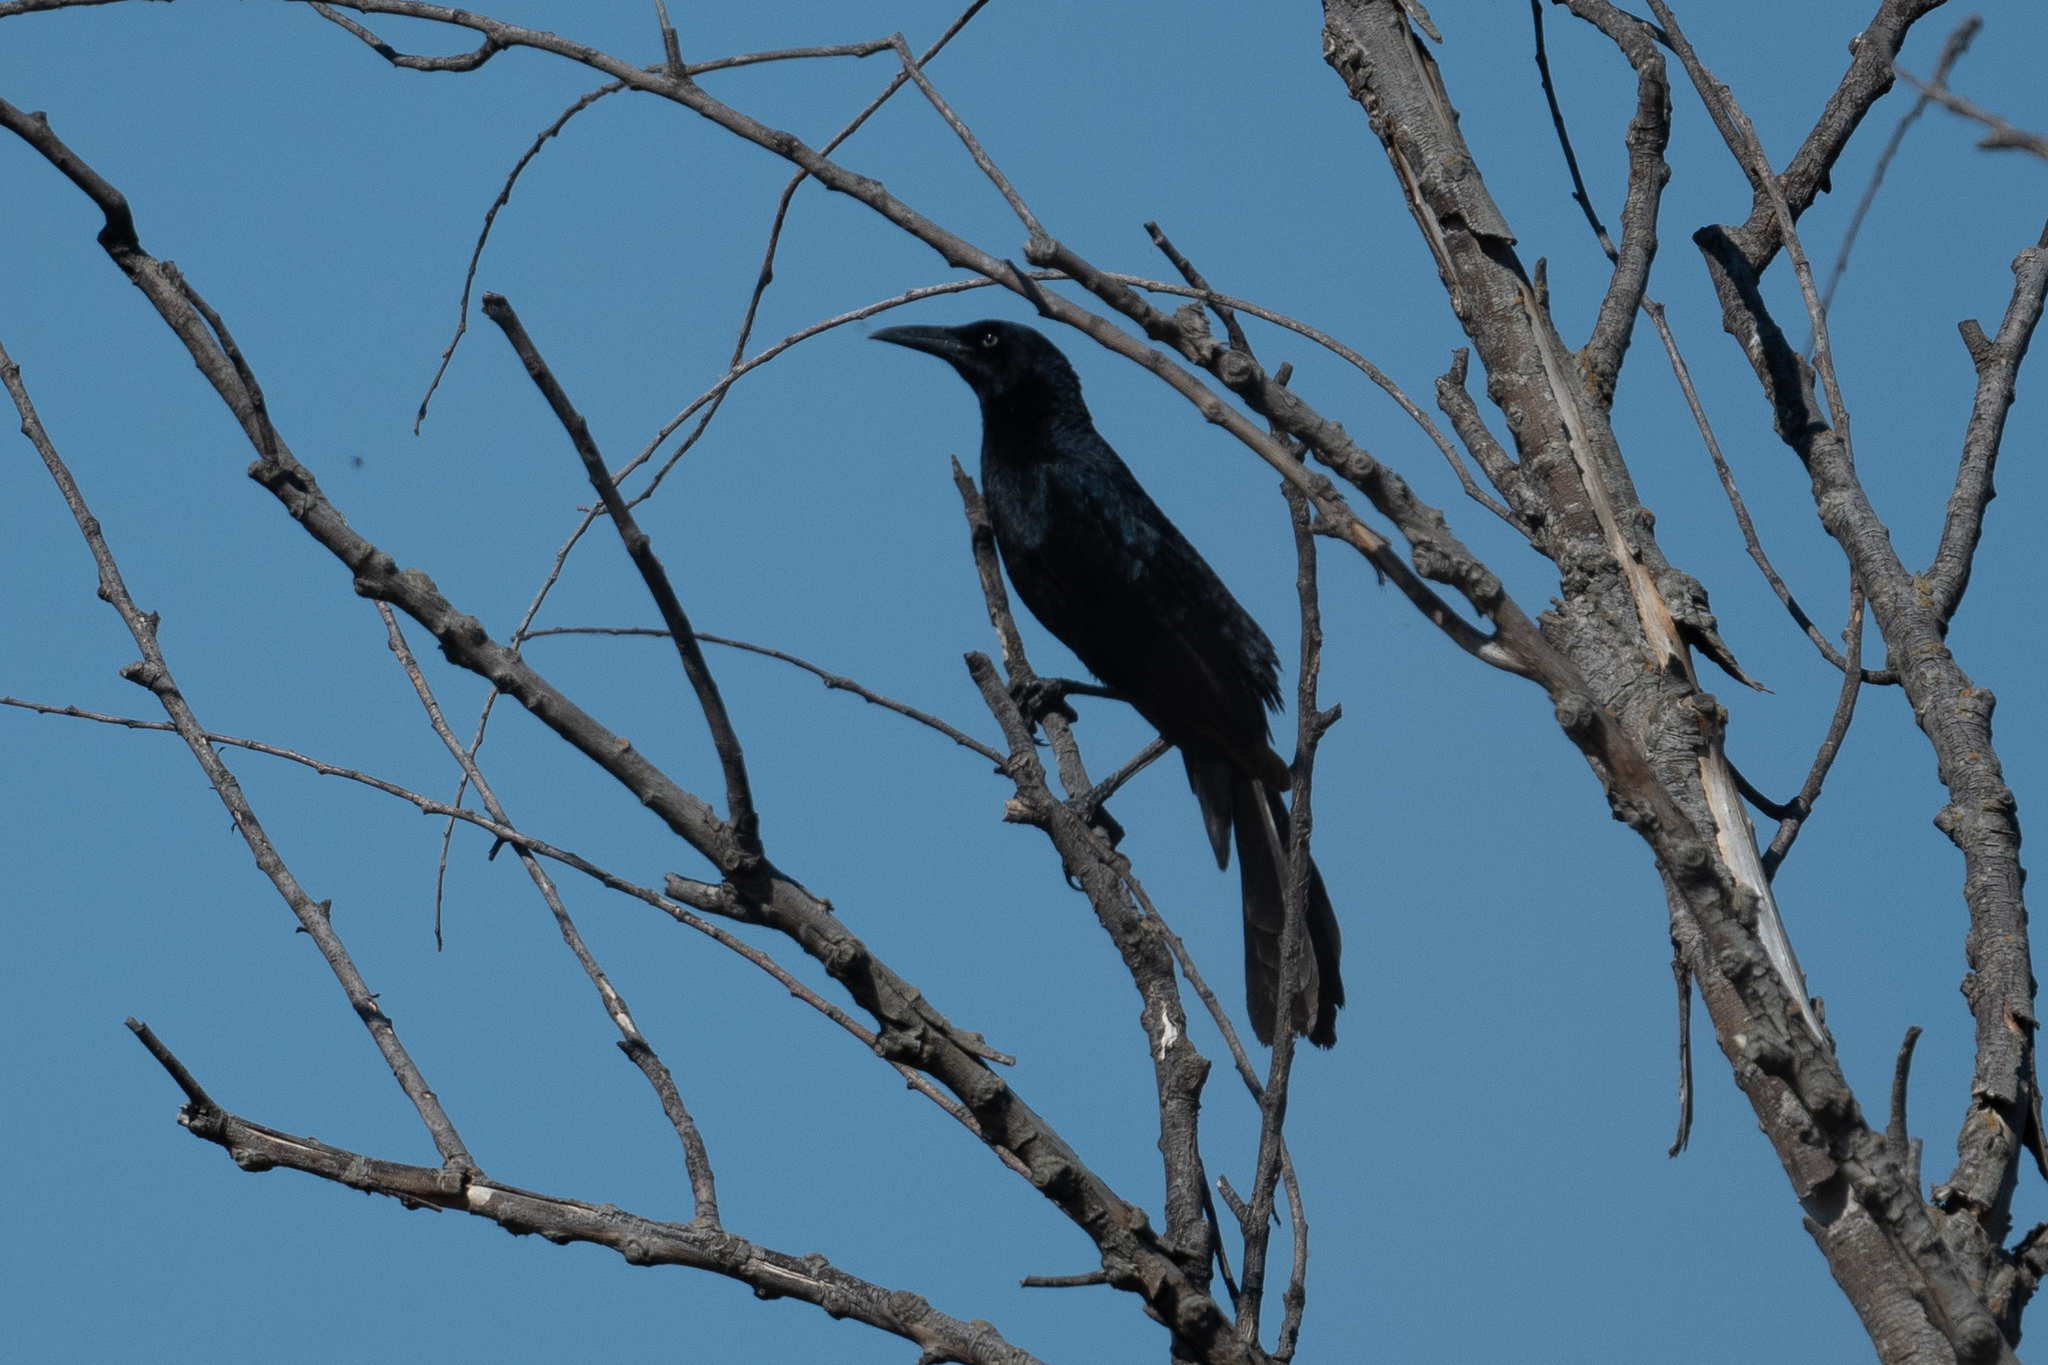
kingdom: Animalia
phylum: Chordata
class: Aves
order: Passeriformes
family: Icteridae
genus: Quiscalus
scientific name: Quiscalus mexicanus
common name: Great-tailed grackle
